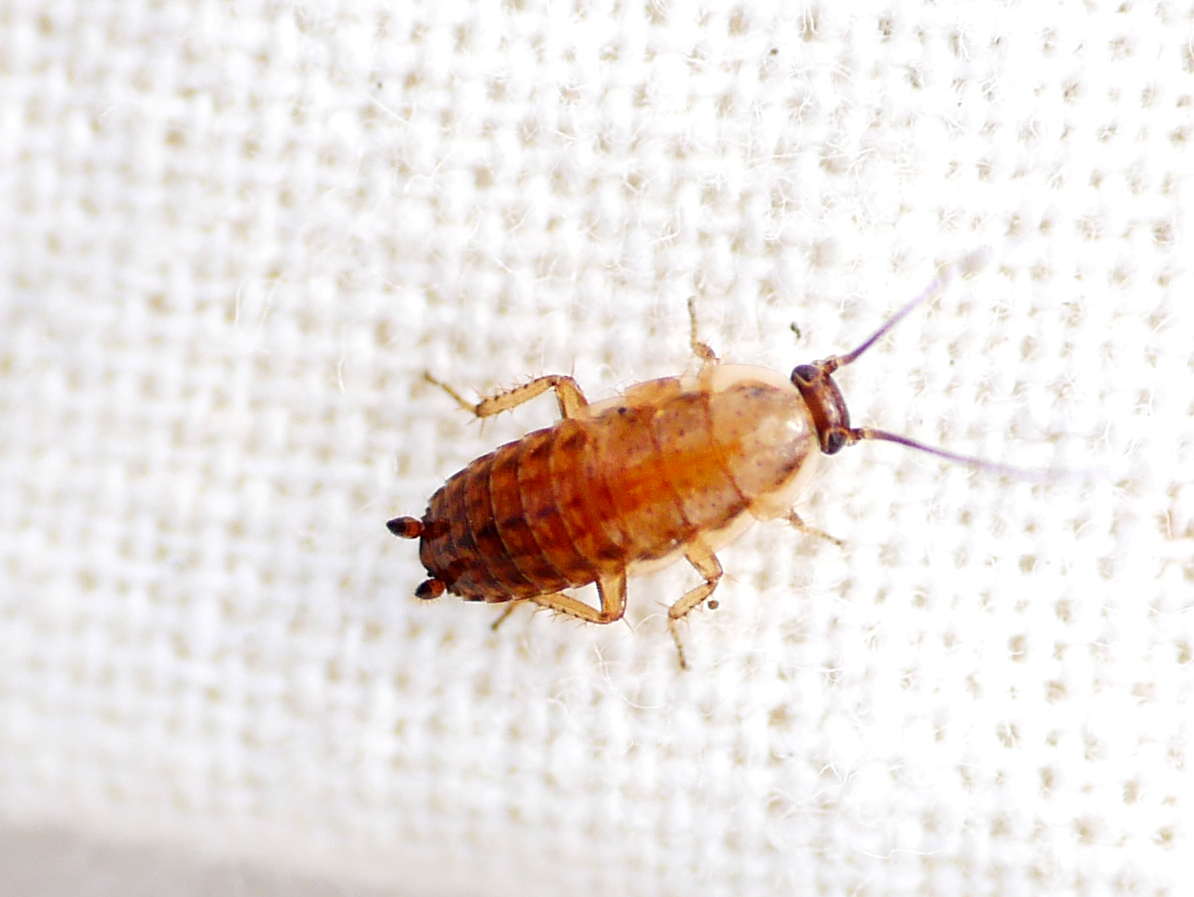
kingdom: Animalia
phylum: Arthropoda
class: Insecta
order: Blattodea
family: Ectobiidae
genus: Ectobius
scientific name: Ectobius lapponicus
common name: Dusky cockroach
